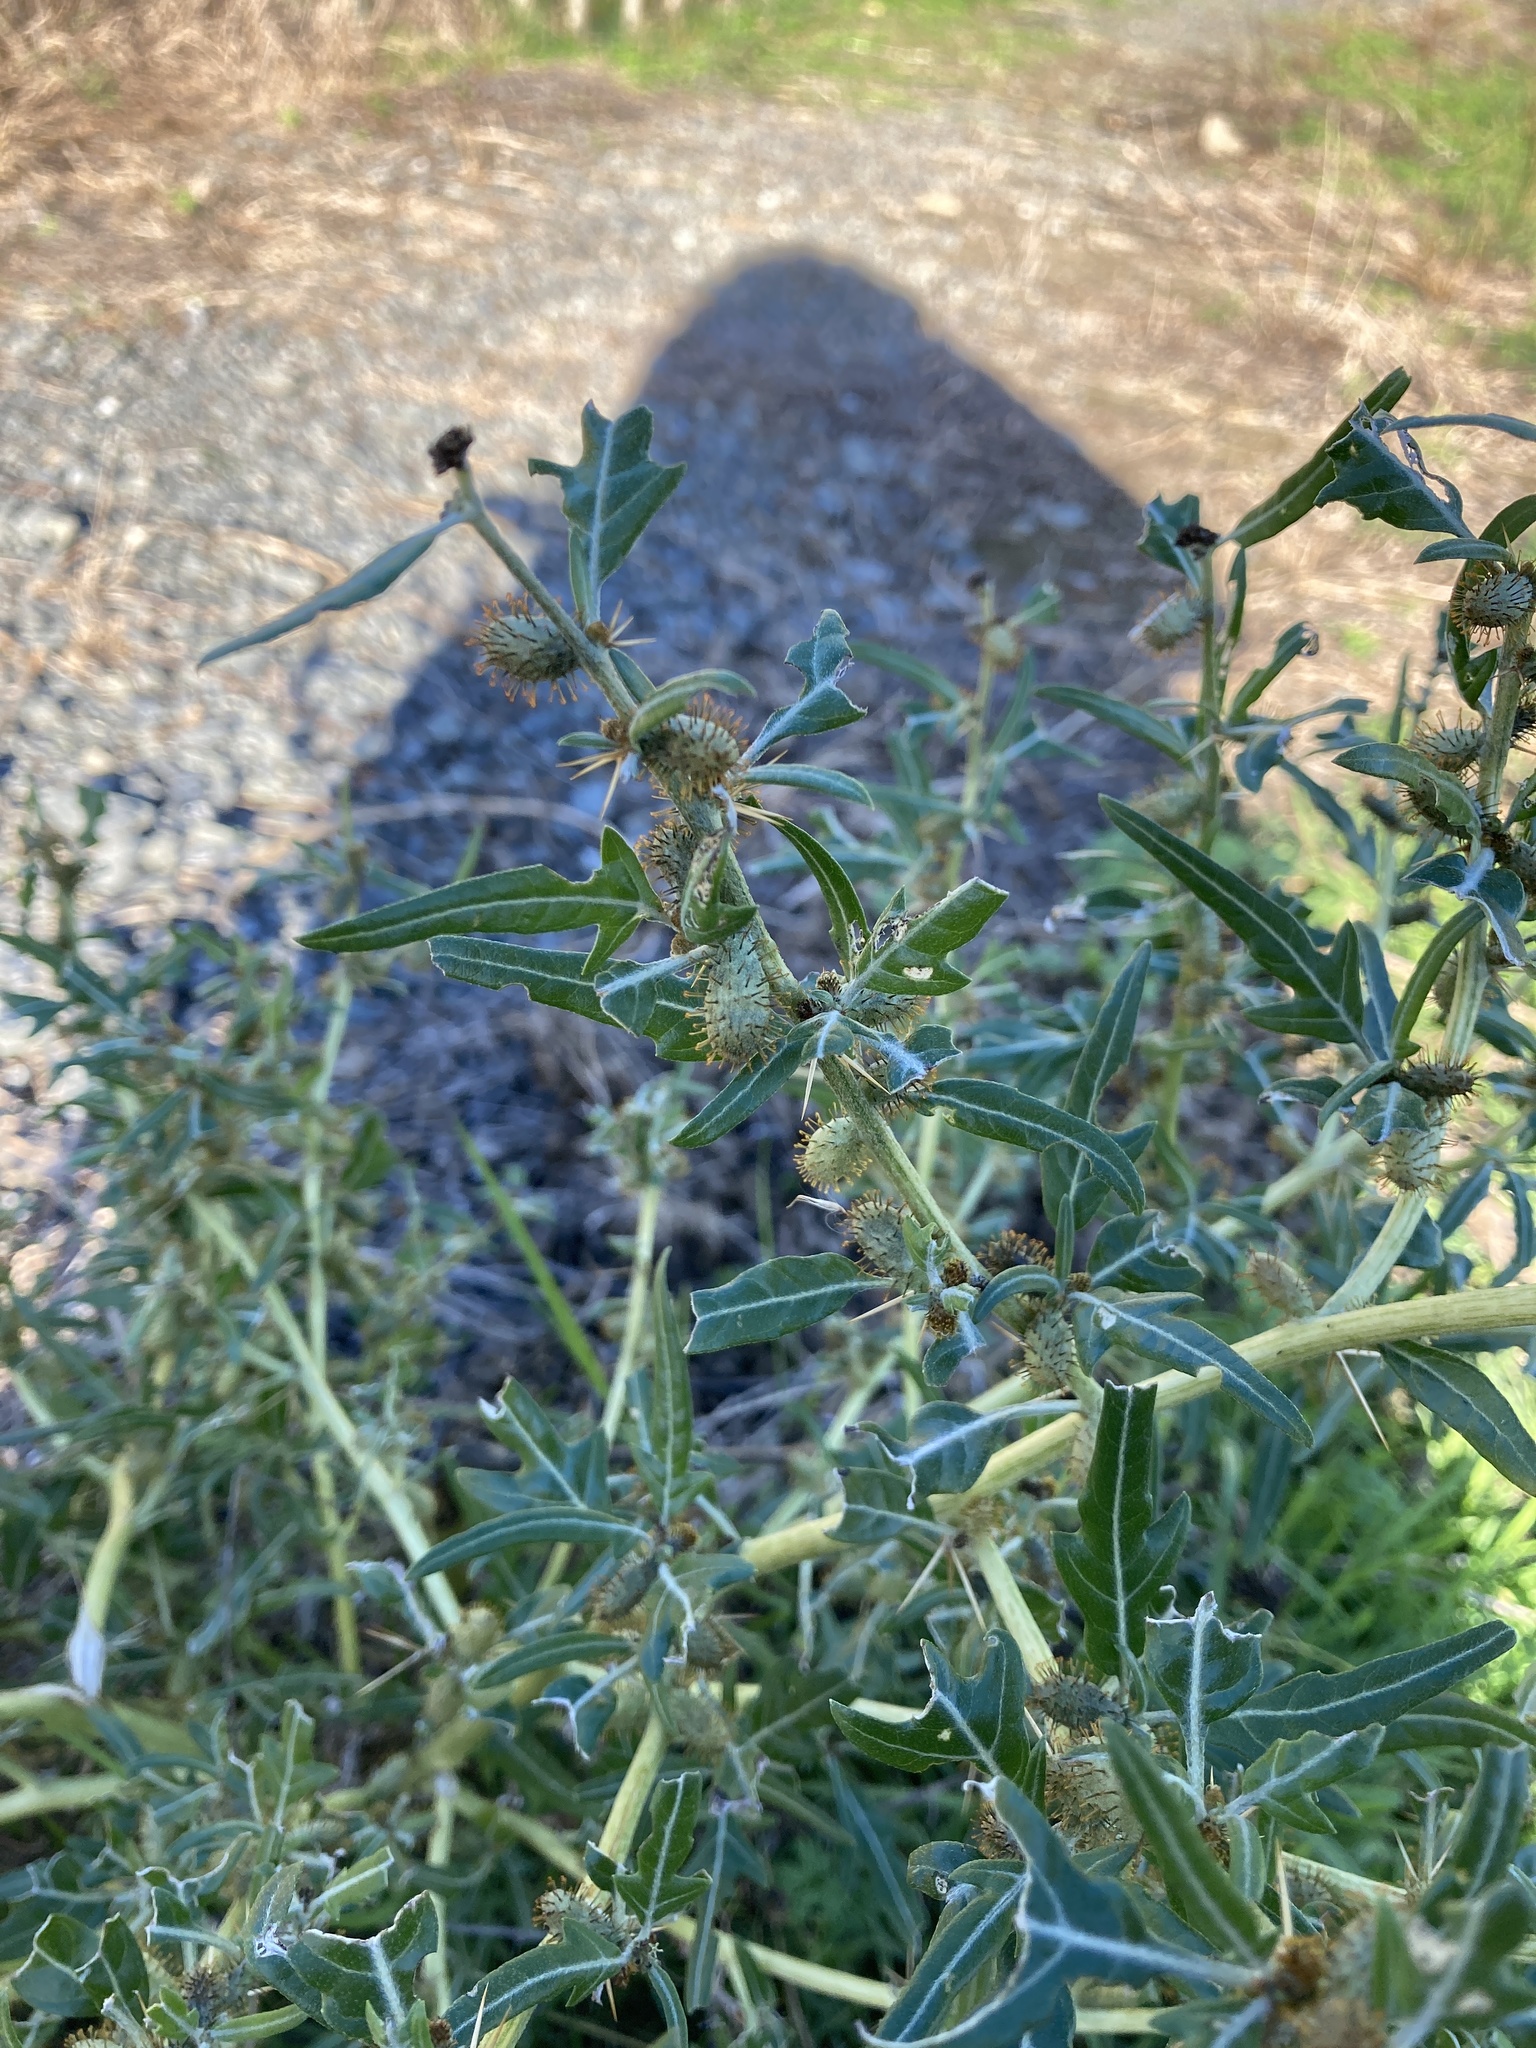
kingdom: Plantae
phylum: Tracheophyta
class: Magnoliopsida
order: Asterales
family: Asteraceae
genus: Xanthium
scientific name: Xanthium spinosum
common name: Spiny cocklebur
